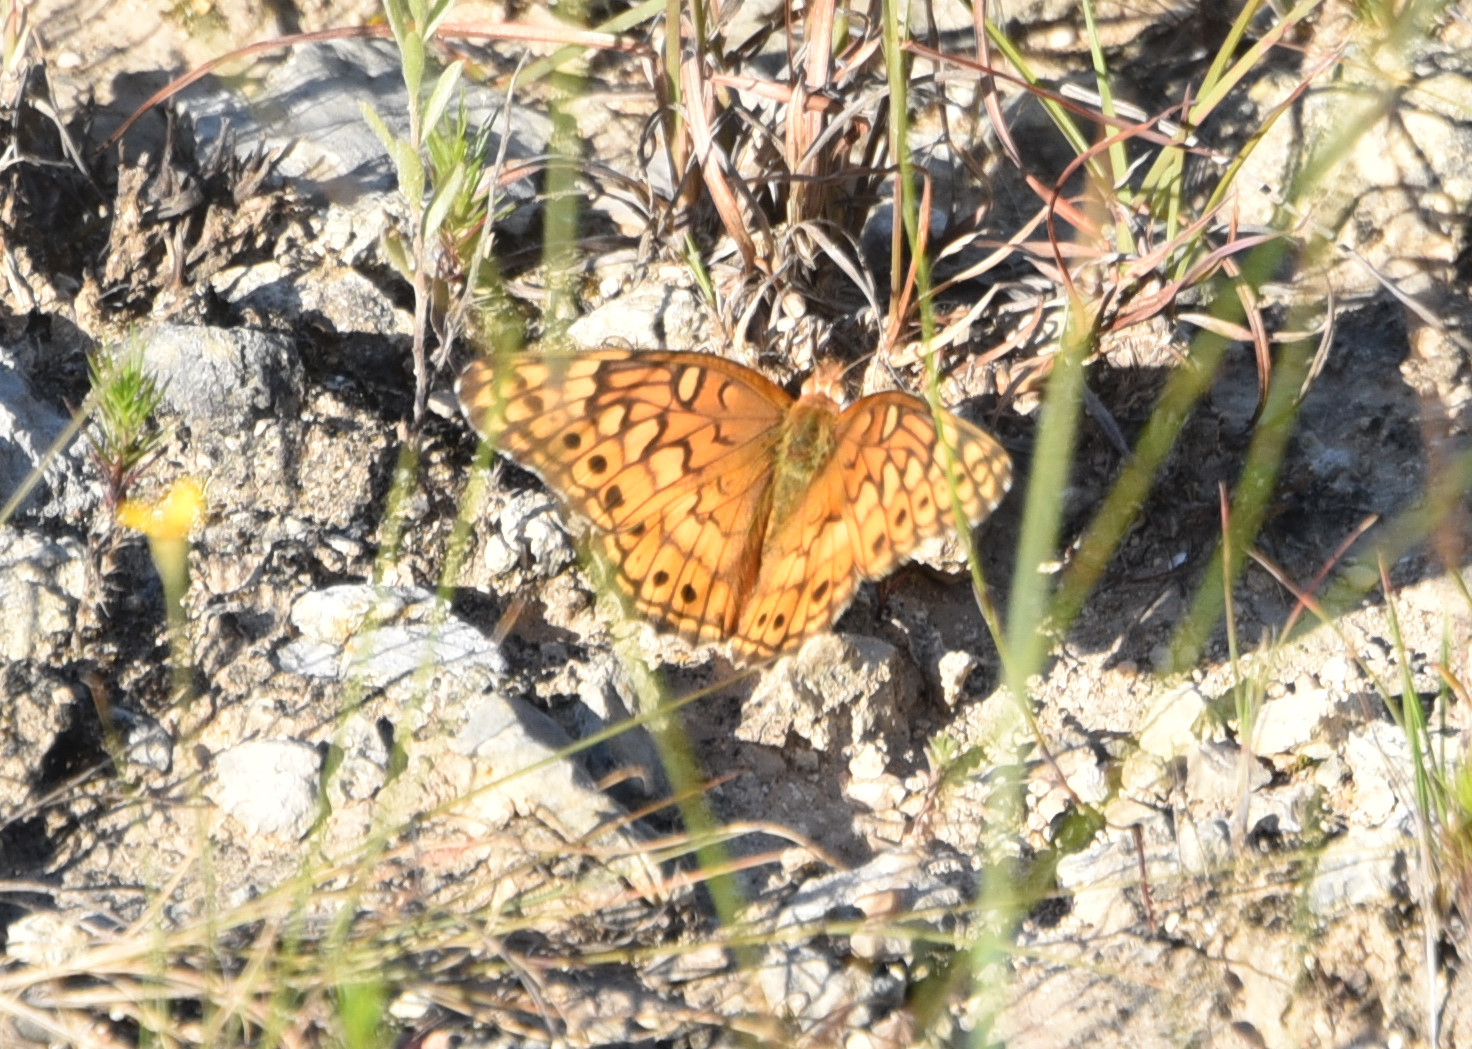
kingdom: Animalia
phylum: Arthropoda
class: Insecta
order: Lepidoptera
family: Nymphalidae
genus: Euptoieta
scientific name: Euptoieta claudia
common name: Variegated fritillary
